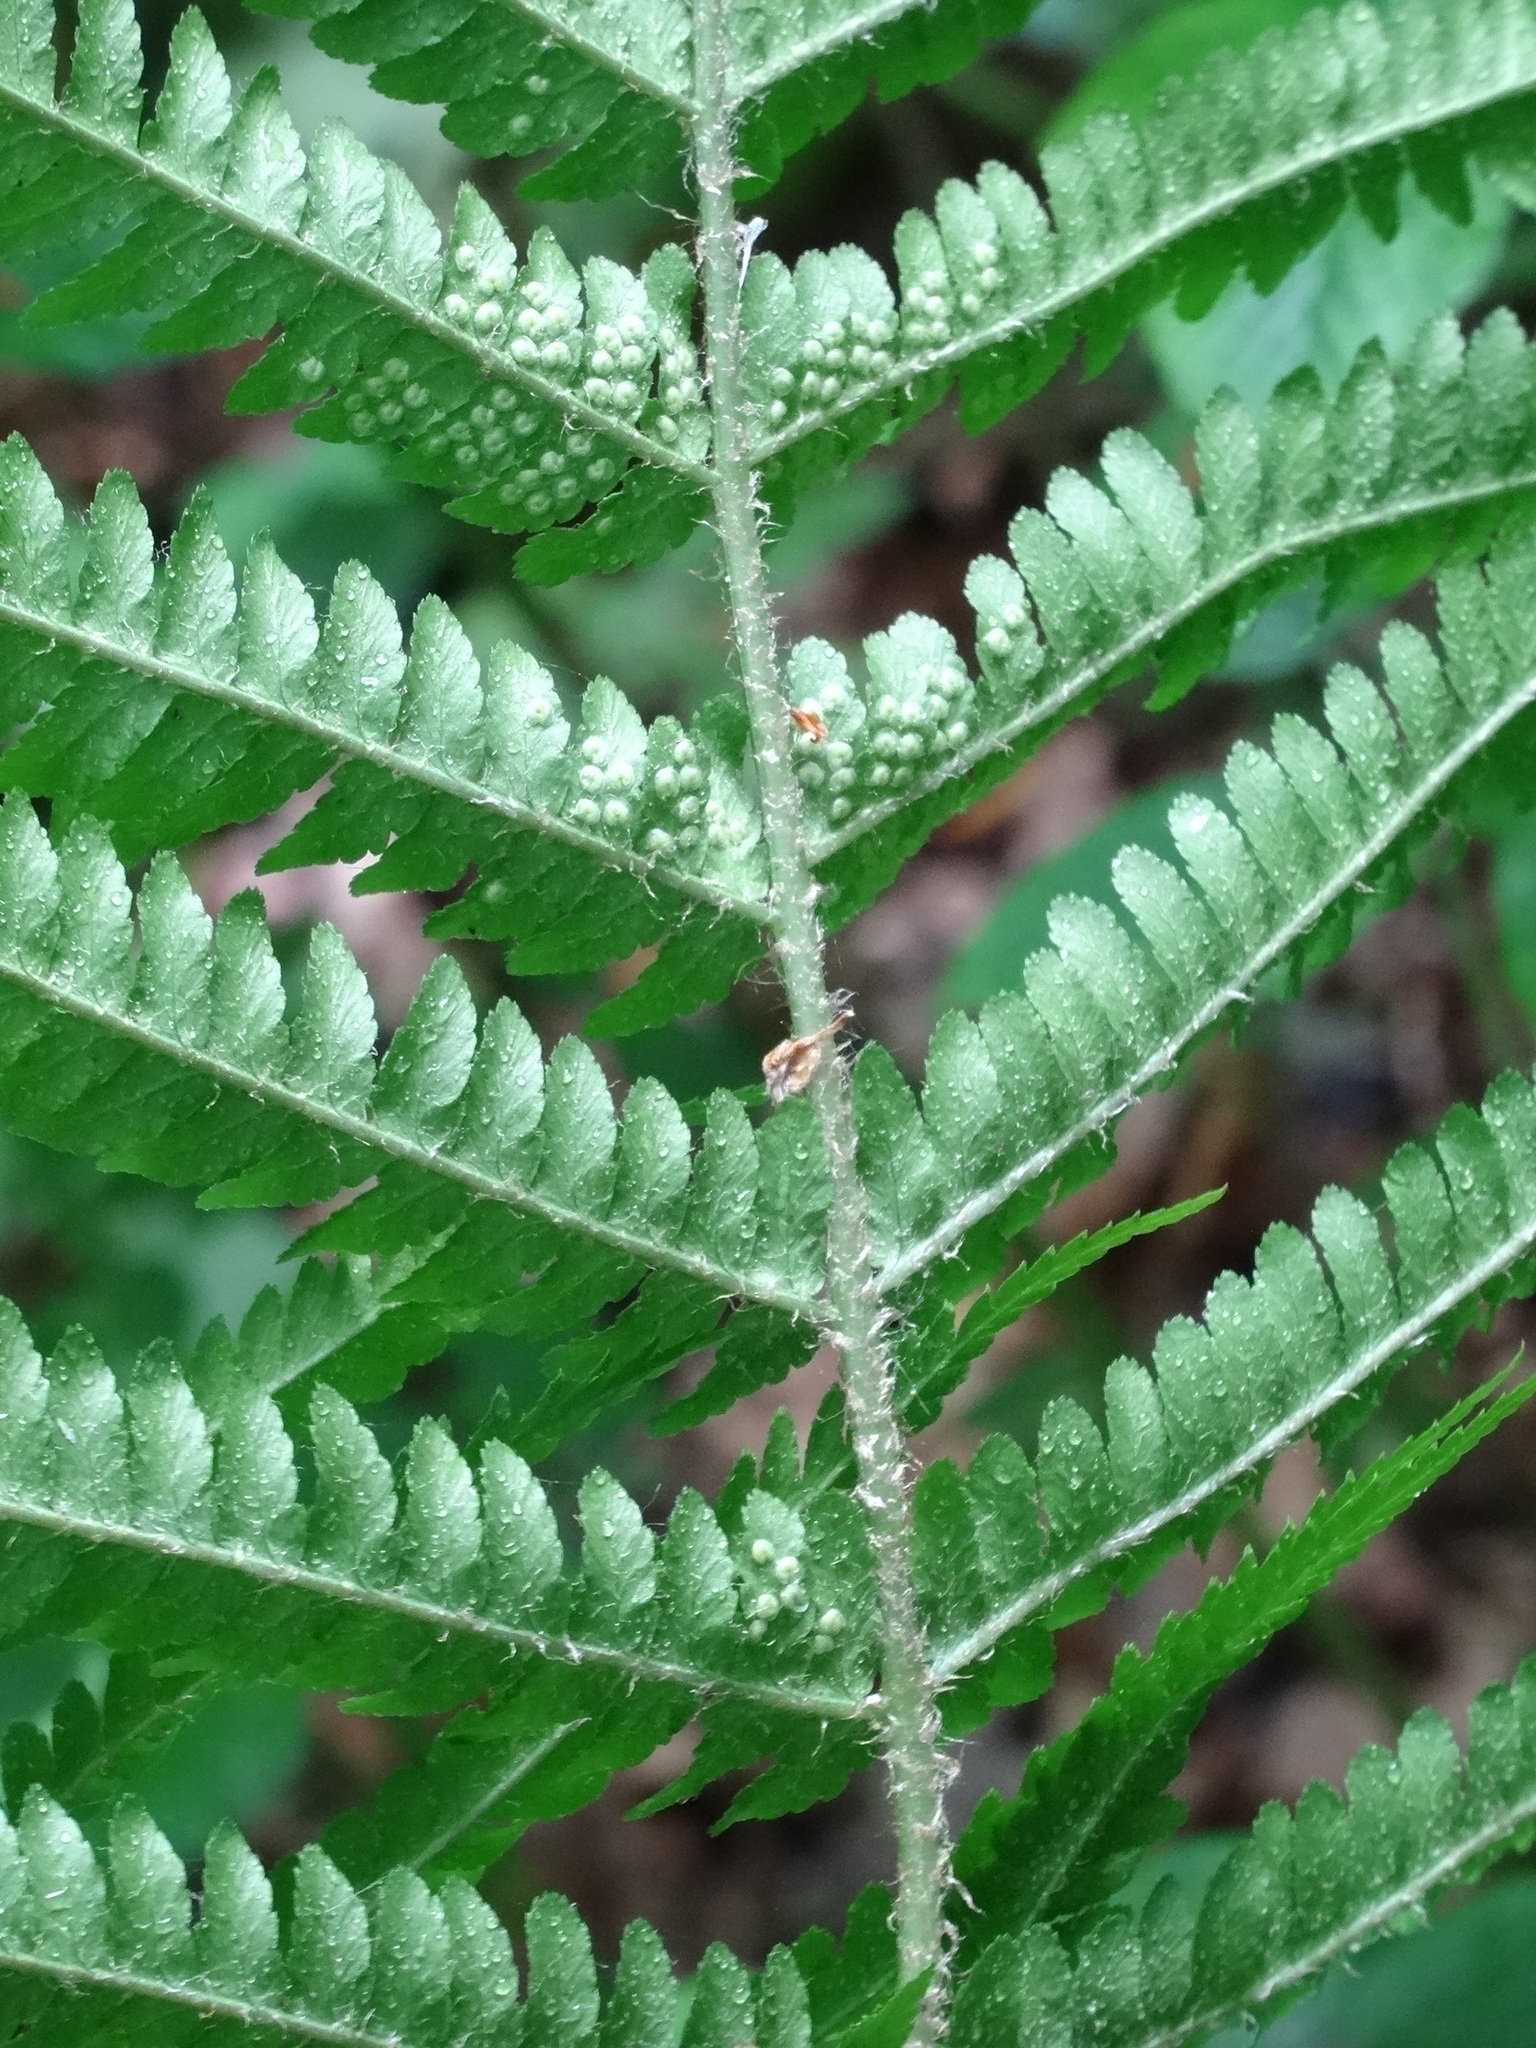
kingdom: Plantae
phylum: Tracheophyta
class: Polypodiopsida
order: Polypodiales
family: Dryopteridaceae
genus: Dryopteris
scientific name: Dryopteris filix-mas
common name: Male fern
